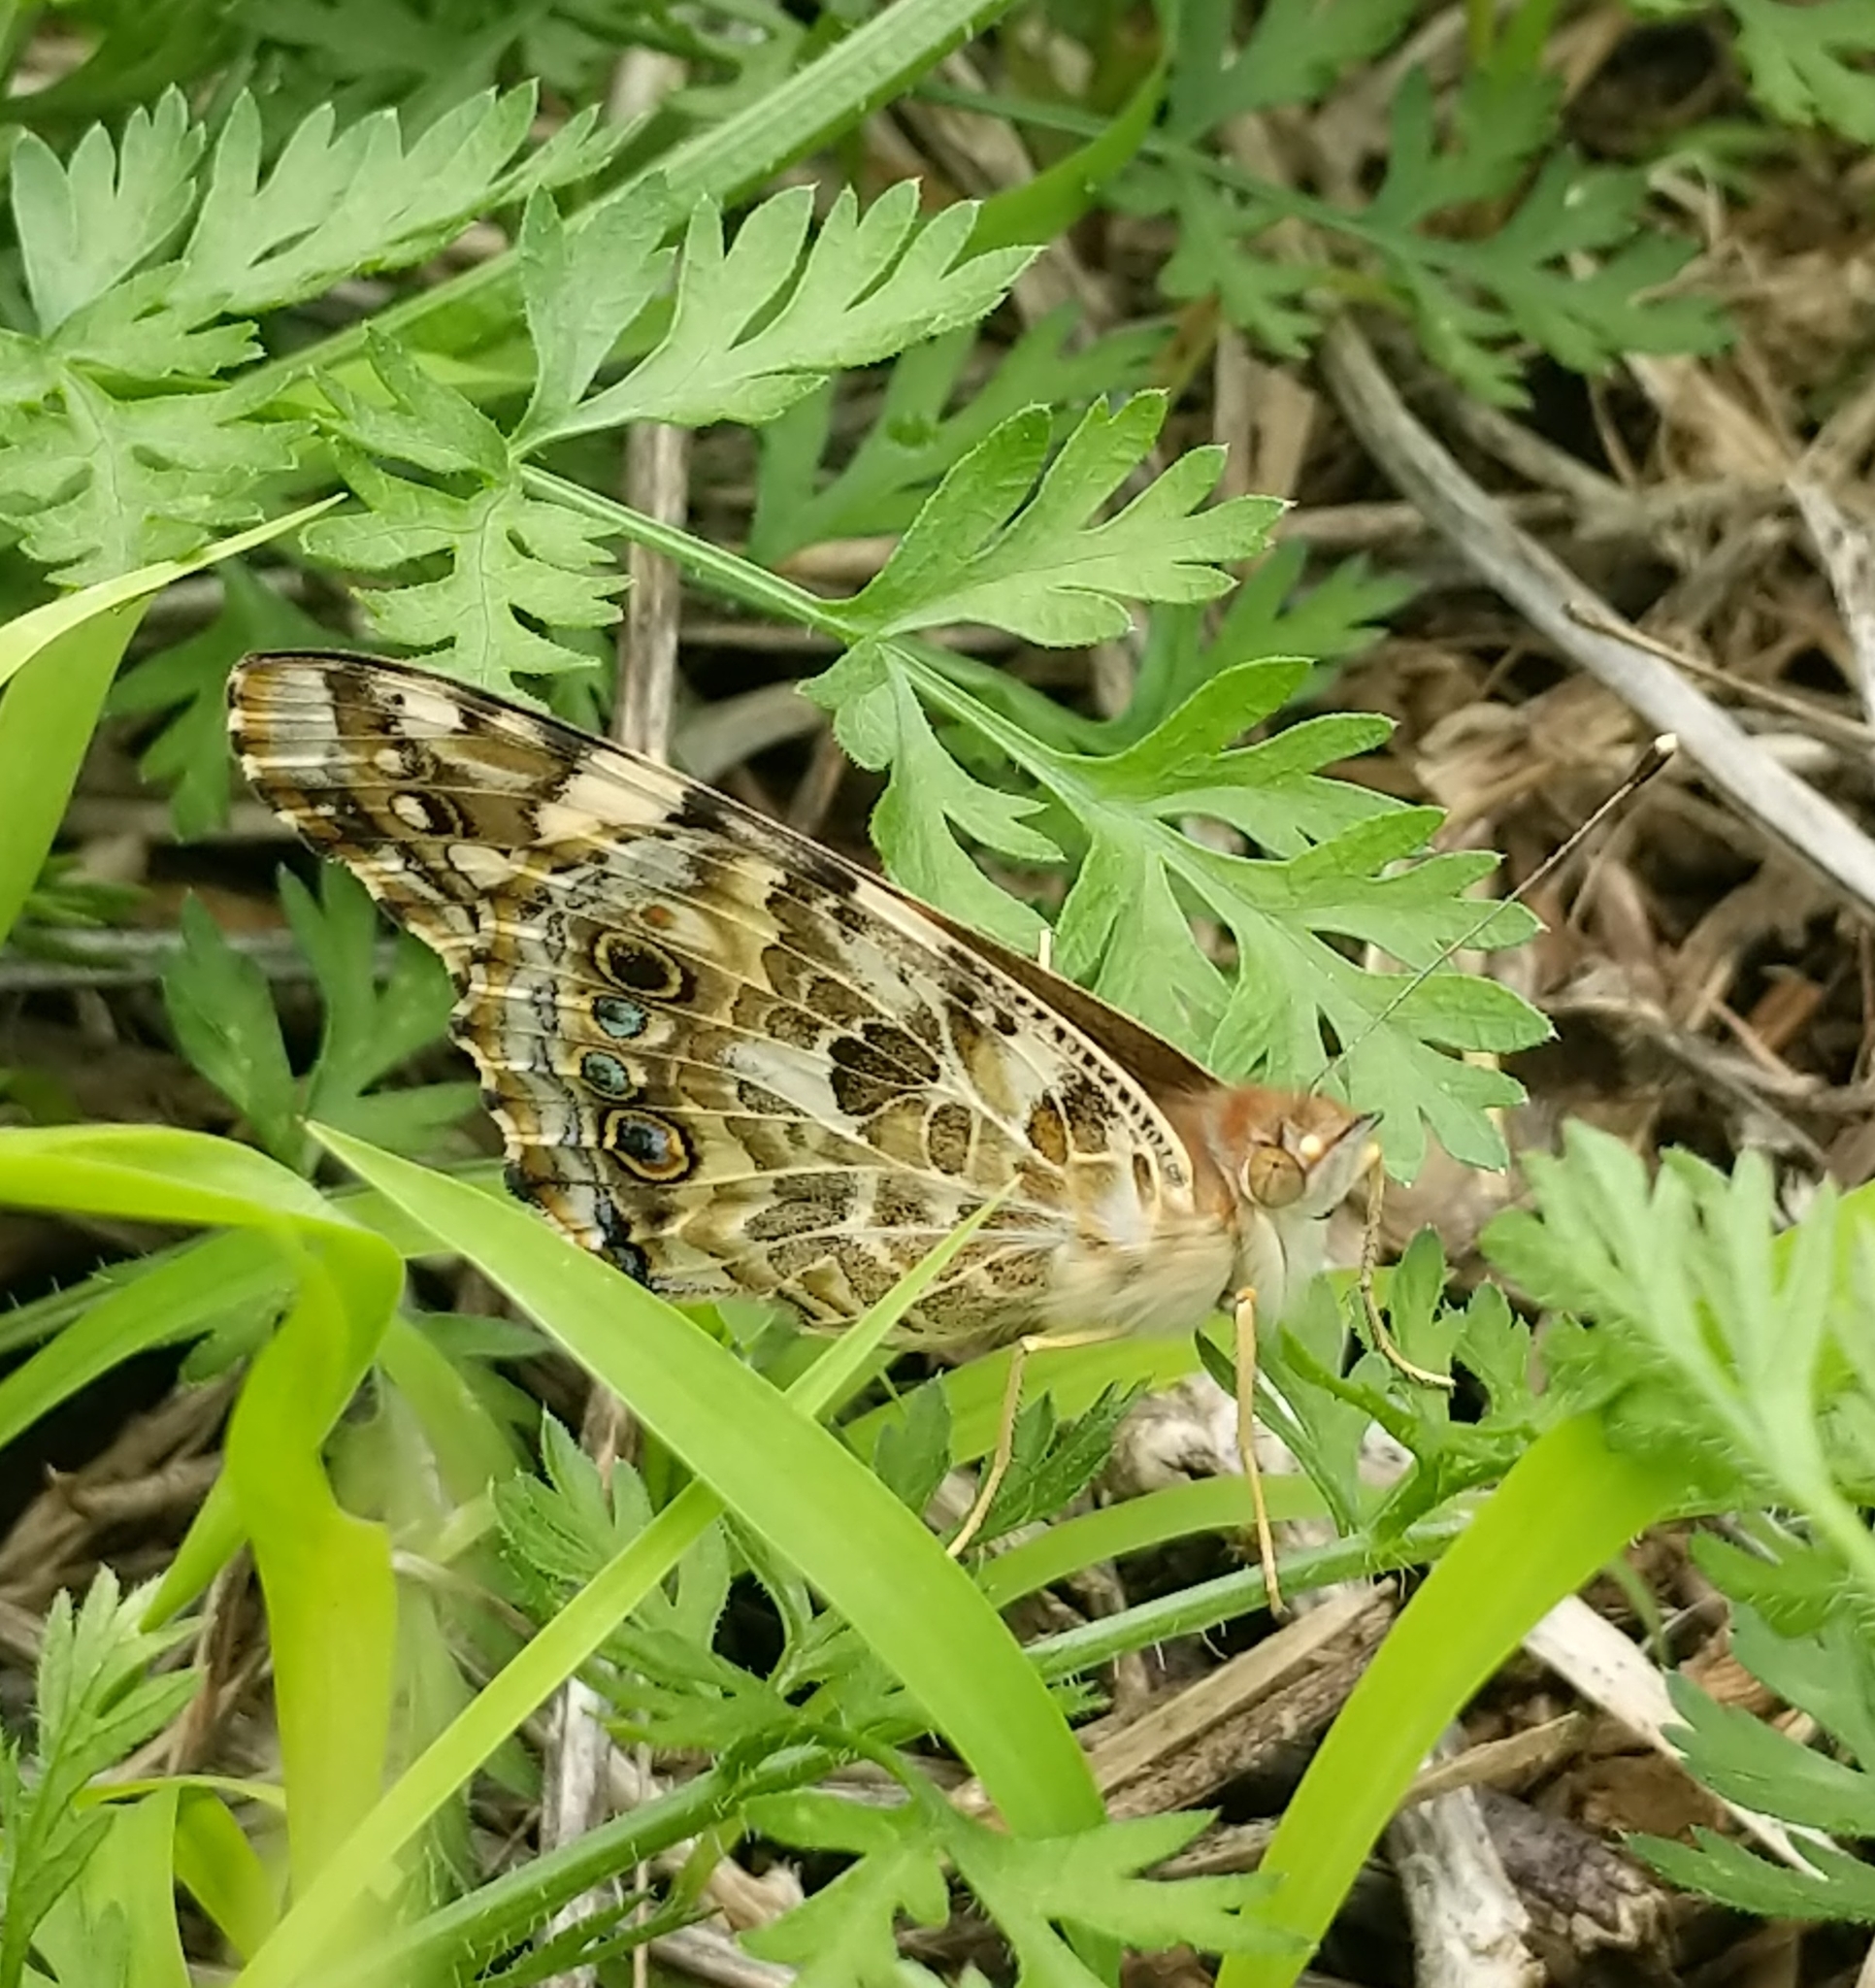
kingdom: Animalia
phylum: Arthropoda
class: Insecta
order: Lepidoptera
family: Nymphalidae
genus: Vanessa
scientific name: Vanessa cardui
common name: Painted lady
